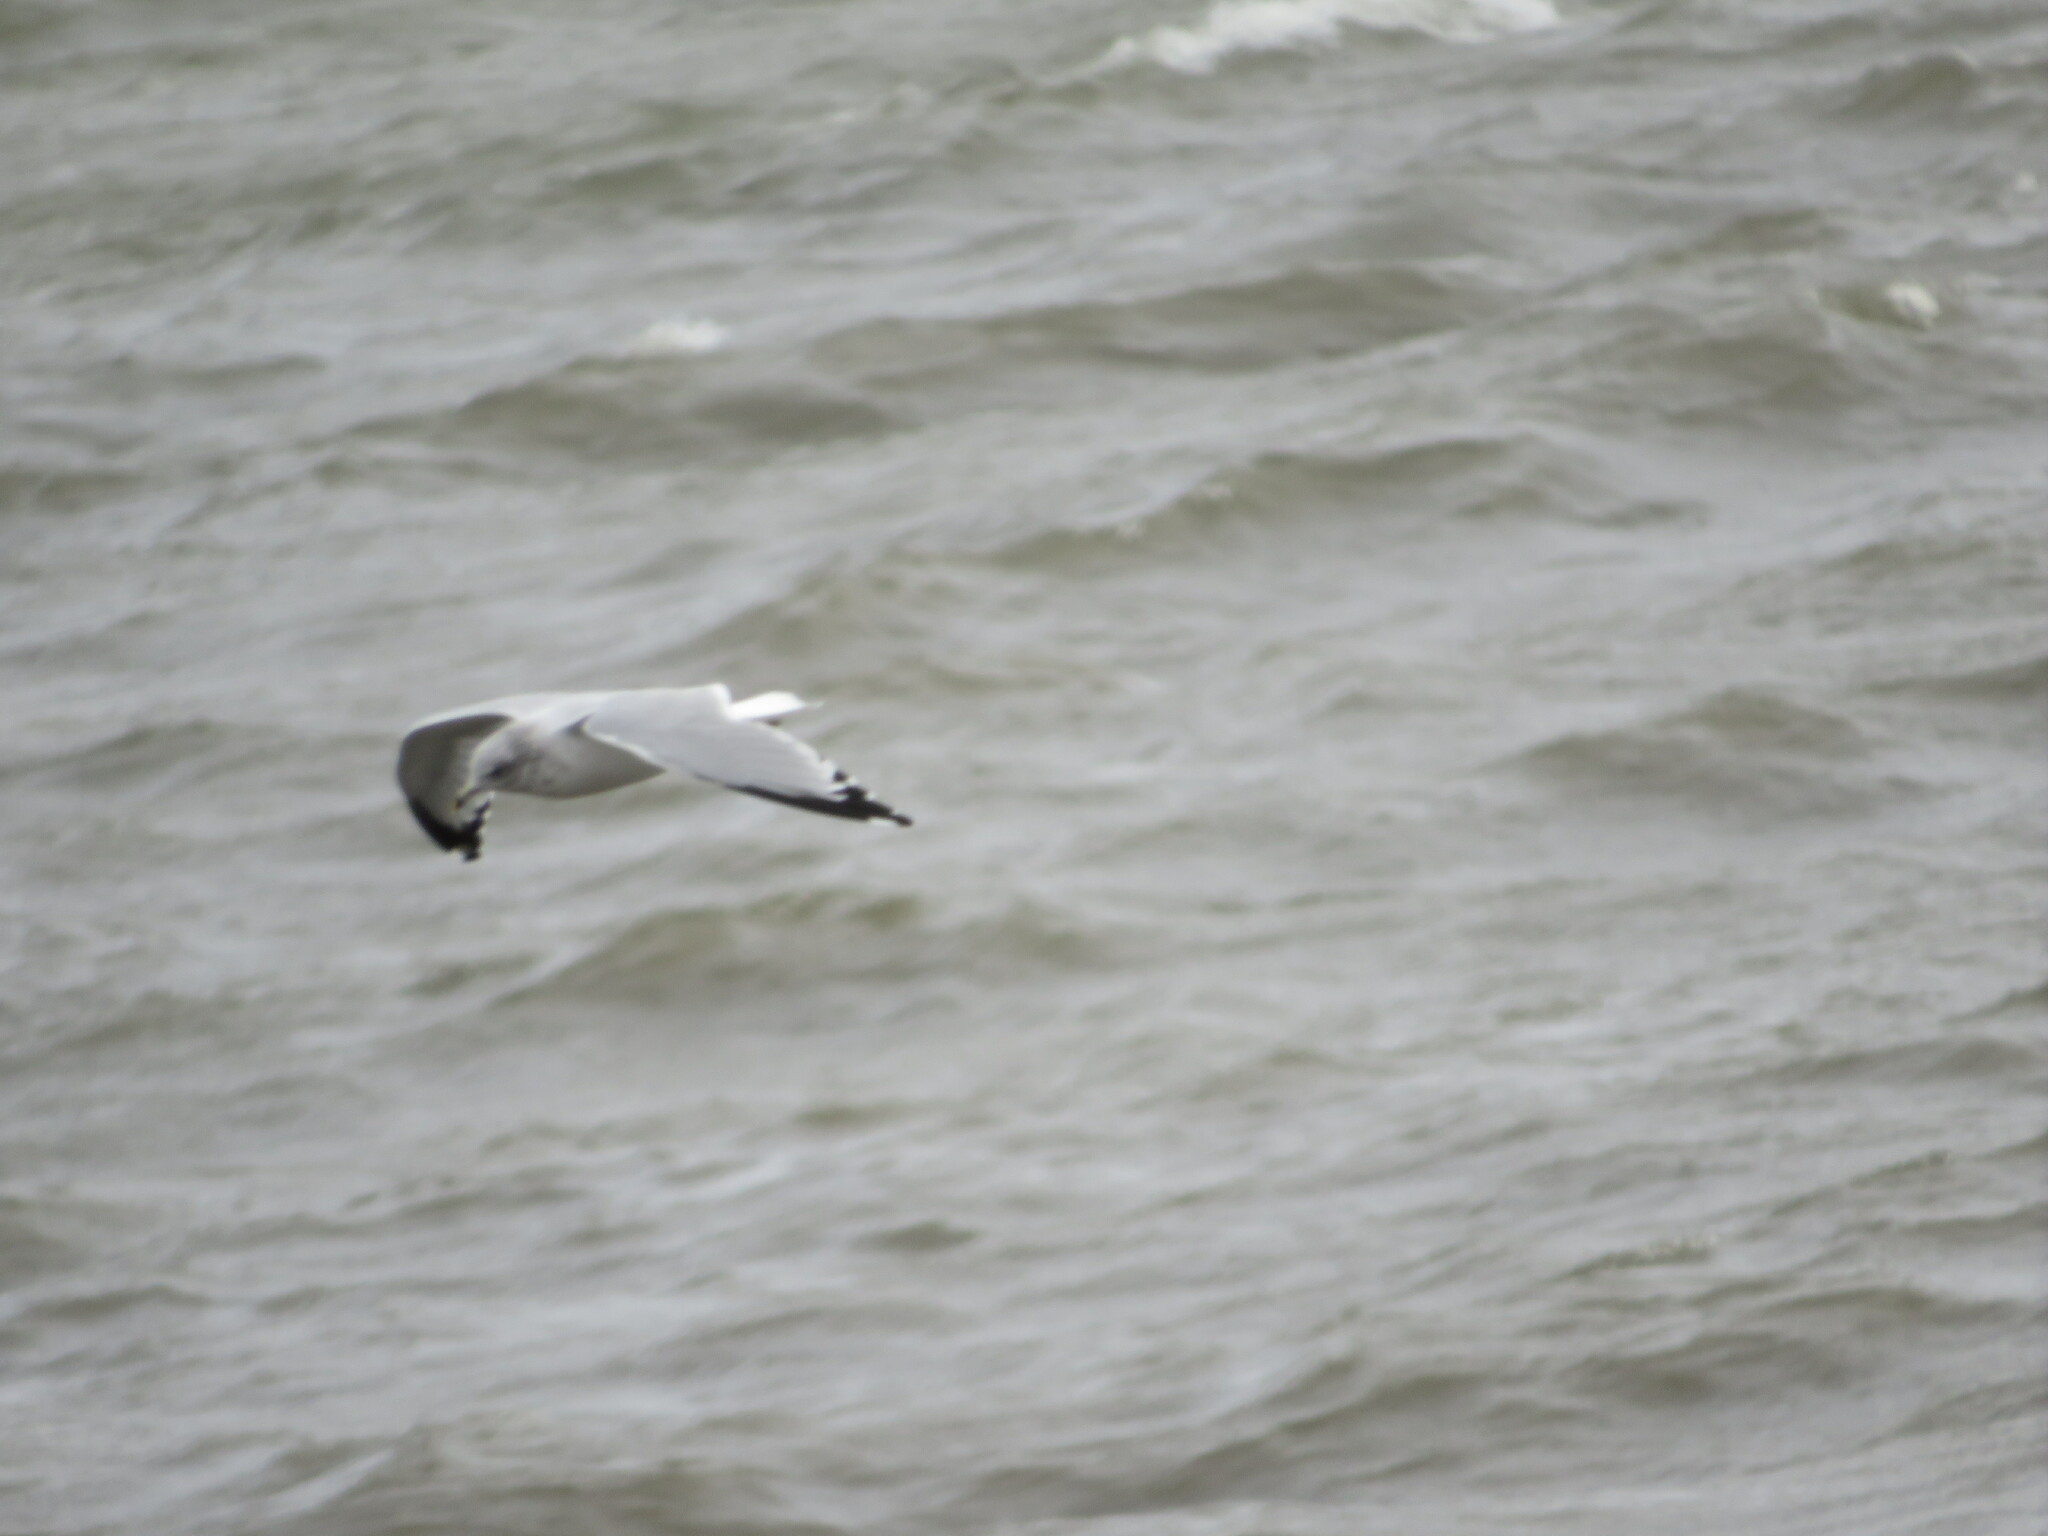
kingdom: Animalia
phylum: Chordata
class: Aves
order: Charadriiformes
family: Laridae
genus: Larus
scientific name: Larus argentatus
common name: Herring gull
